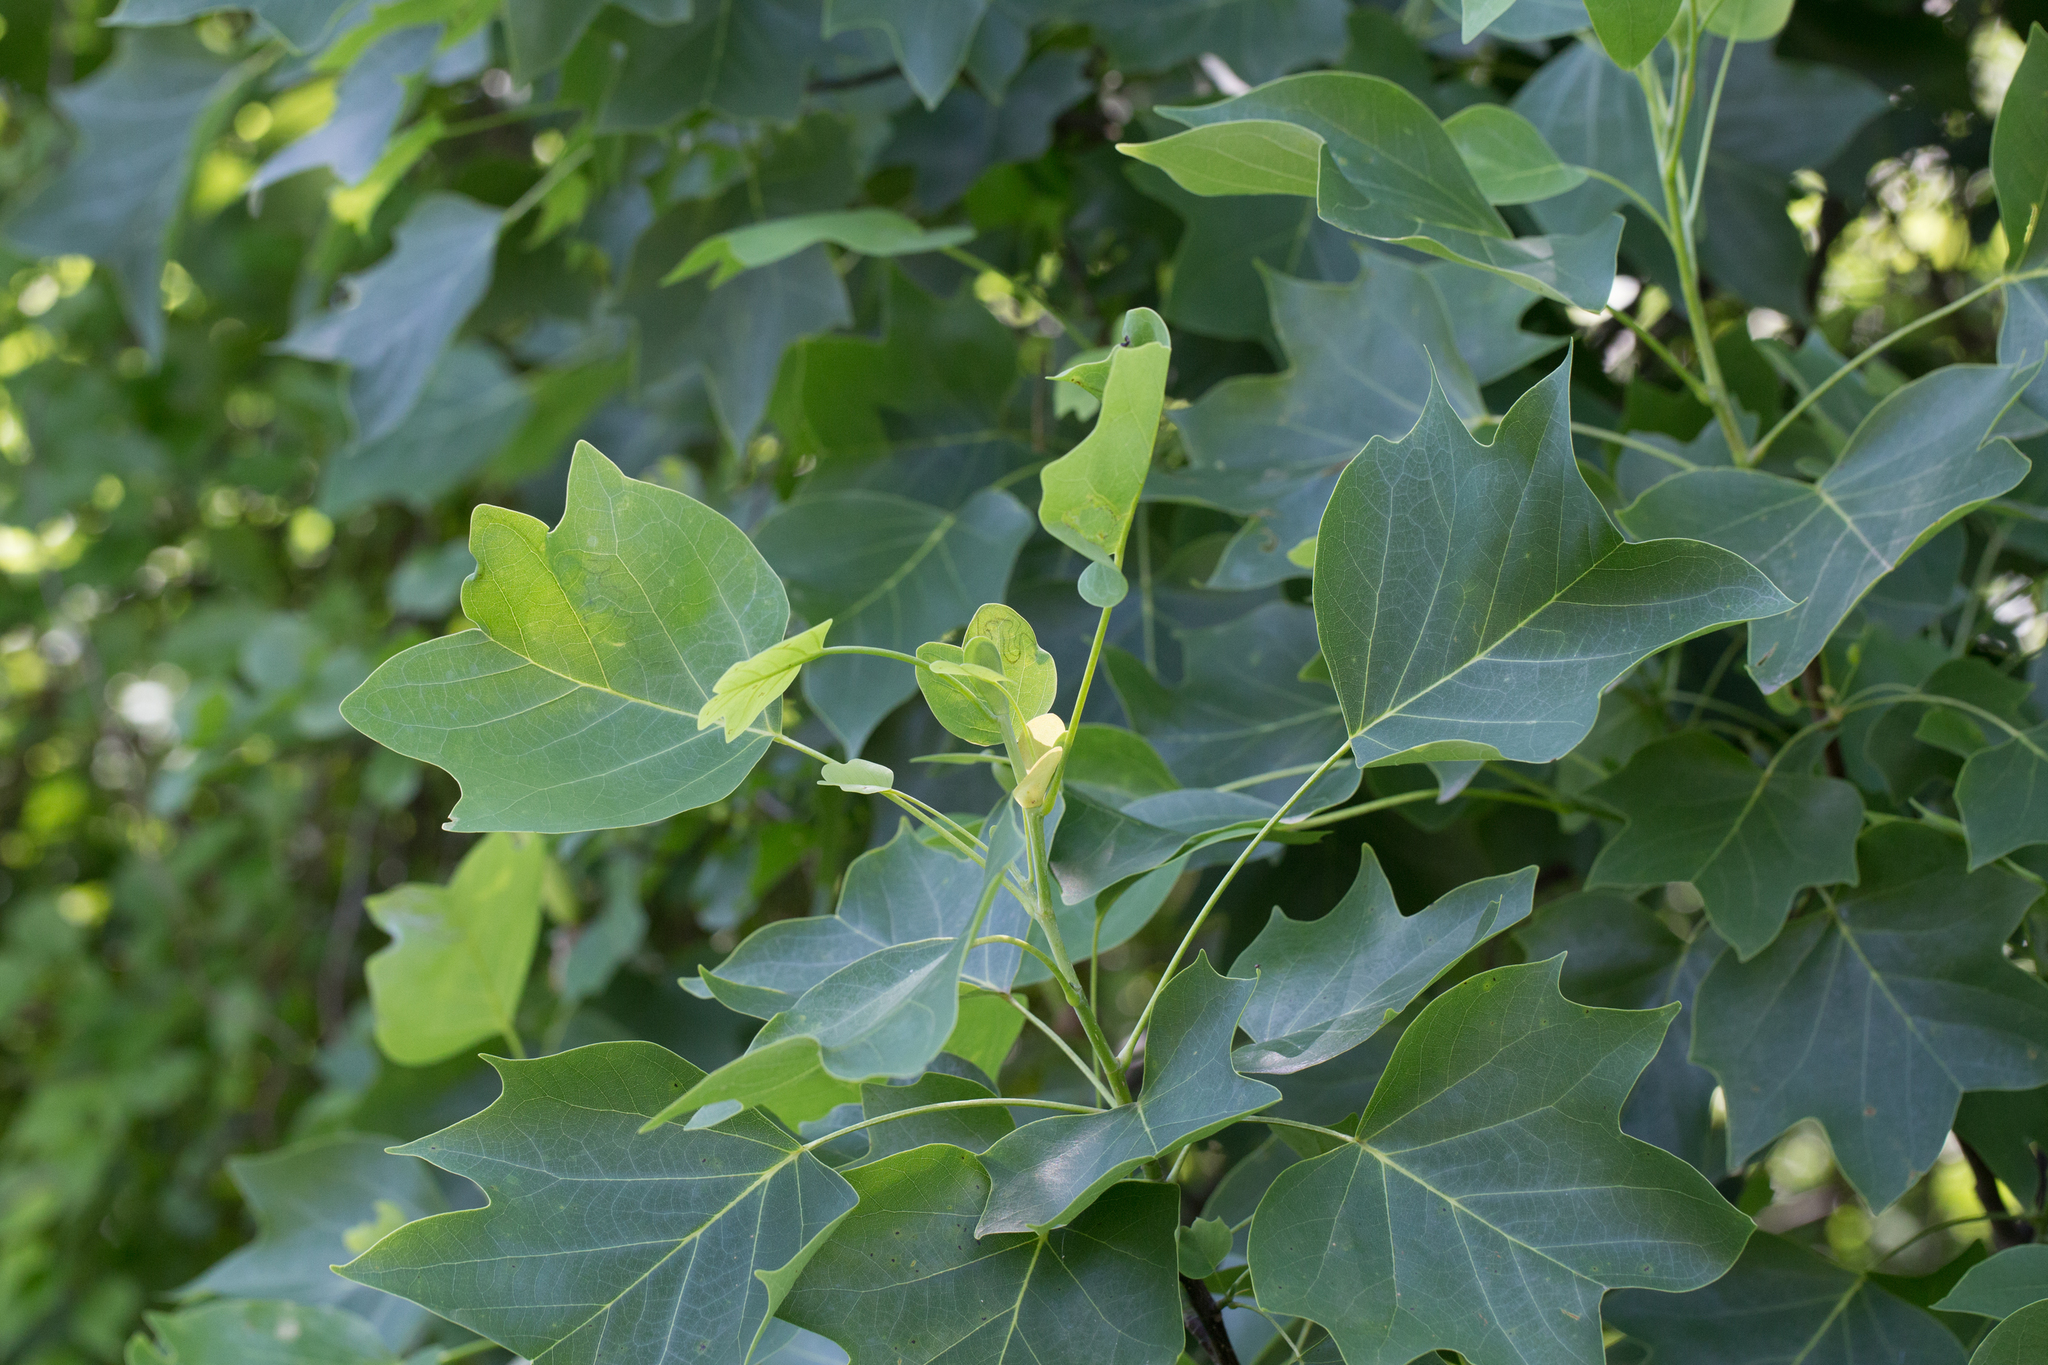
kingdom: Plantae
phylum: Tracheophyta
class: Magnoliopsida
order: Magnoliales
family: Magnoliaceae
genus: Liriodendron
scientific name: Liriodendron tulipifera
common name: Tulip tree
